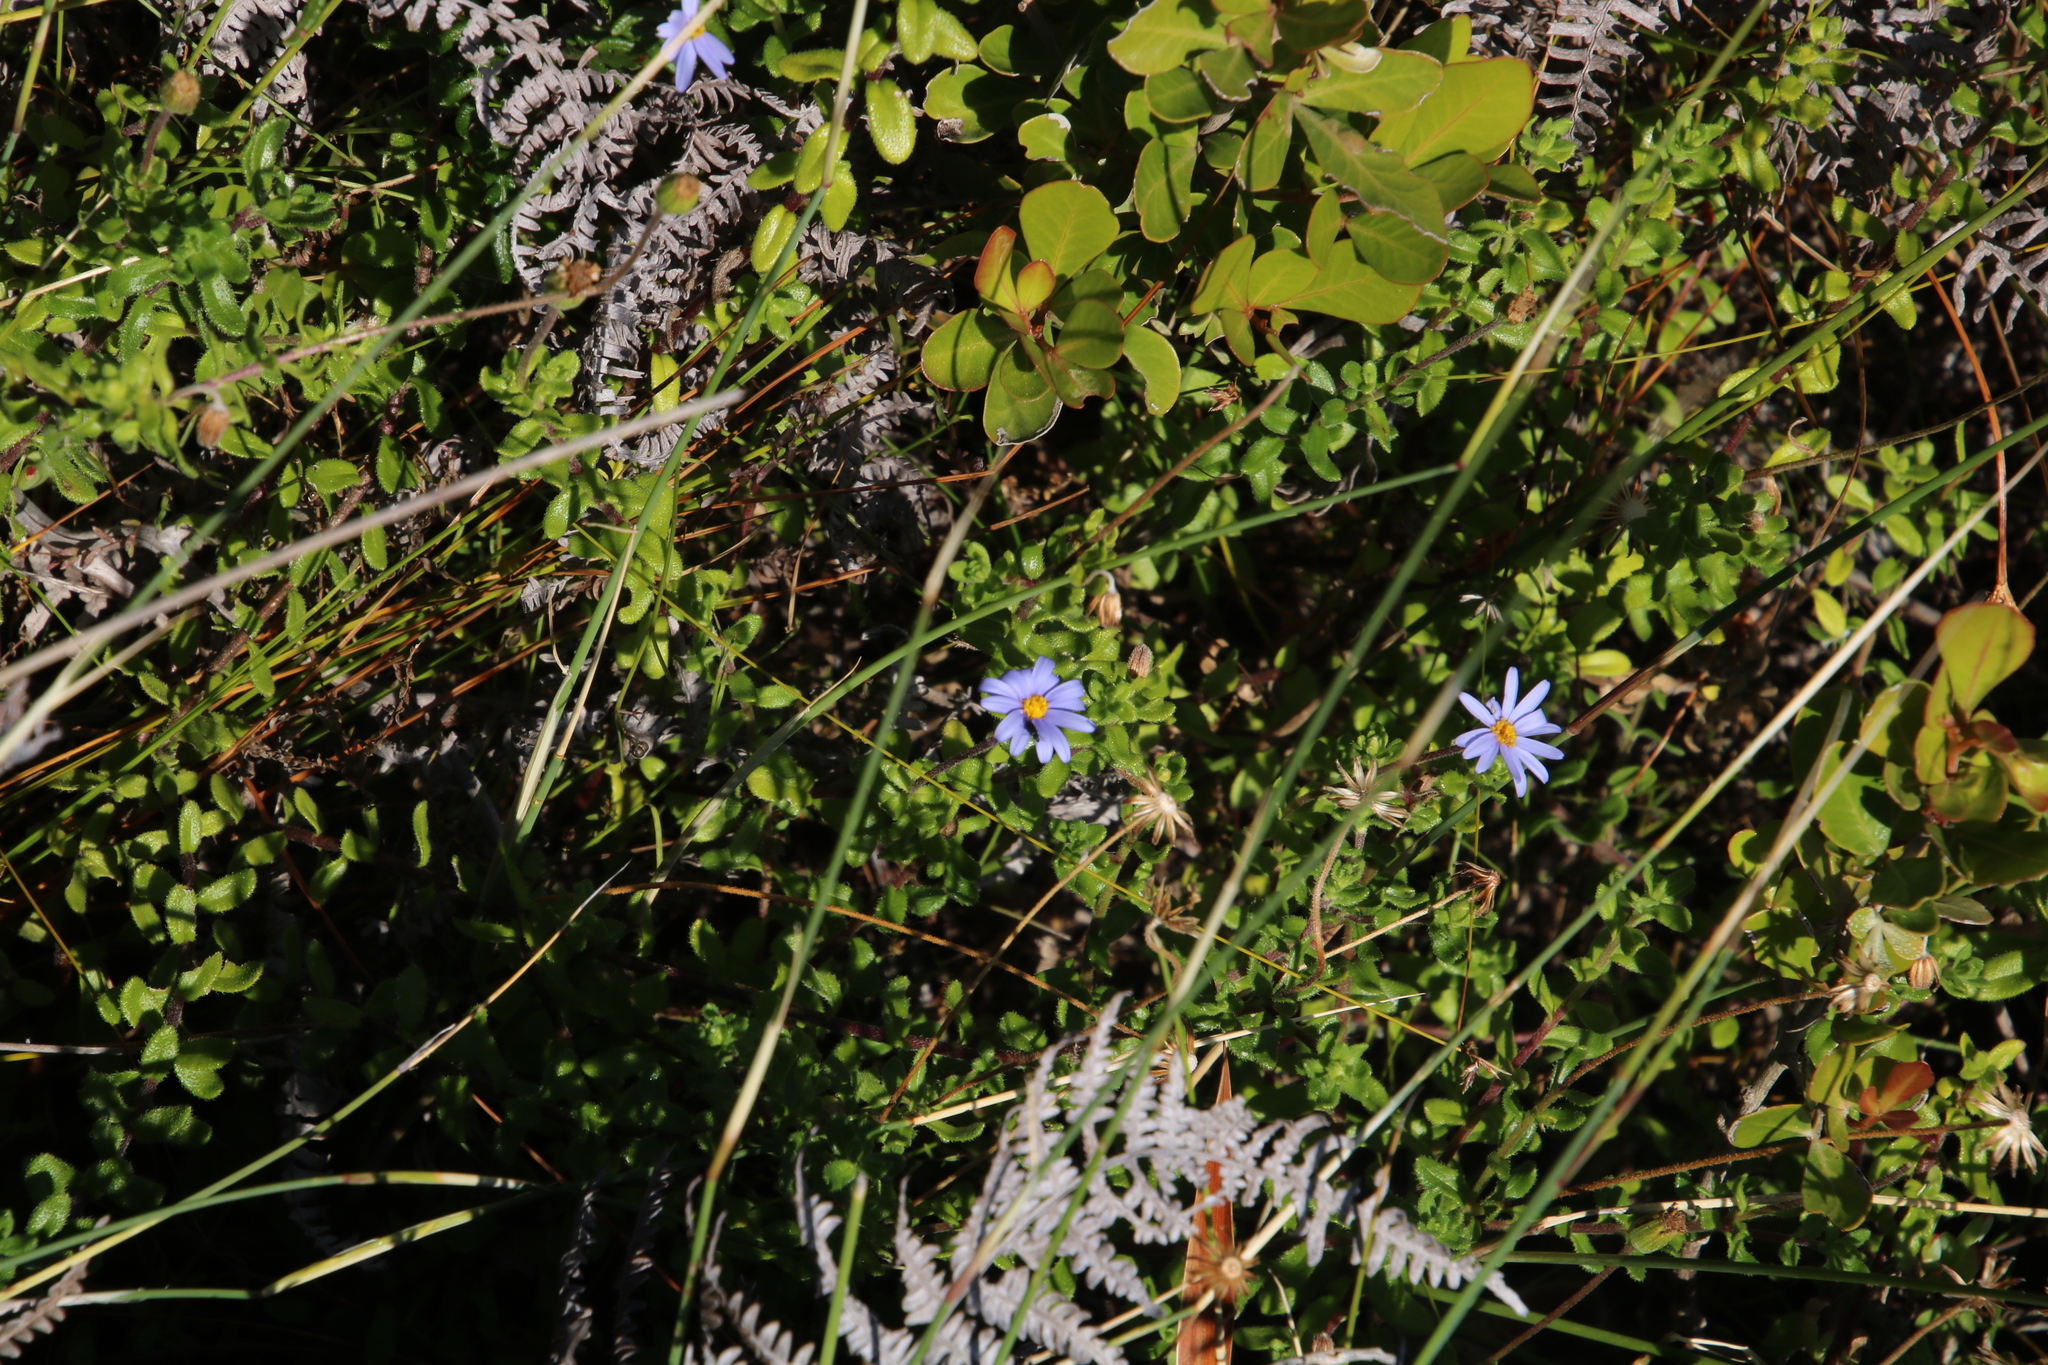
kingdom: Plantae
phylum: Tracheophyta
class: Magnoliopsida
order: Asterales
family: Asteraceae
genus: Felicia
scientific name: Felicia aethiopica
